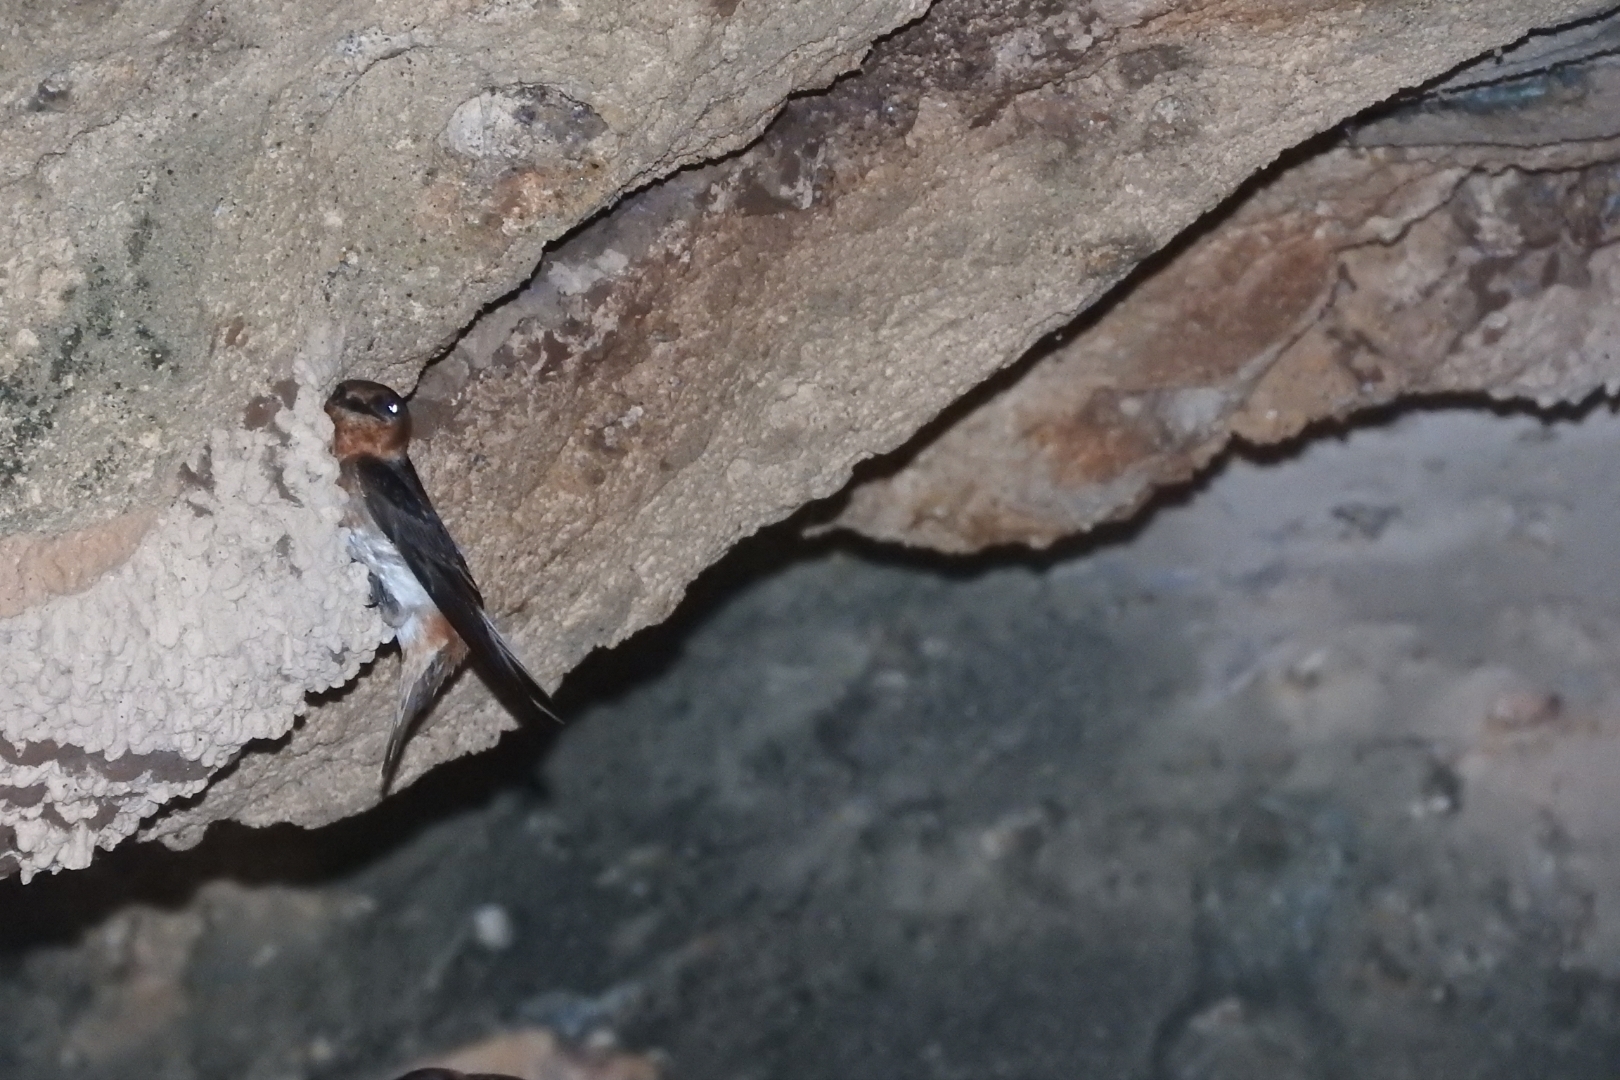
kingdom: Animalia
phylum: Chordata
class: Aves
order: Passeriformes
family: Hirundinidae
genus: Petrochelidon
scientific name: Petrochelidon fulva
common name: Cave swallow
